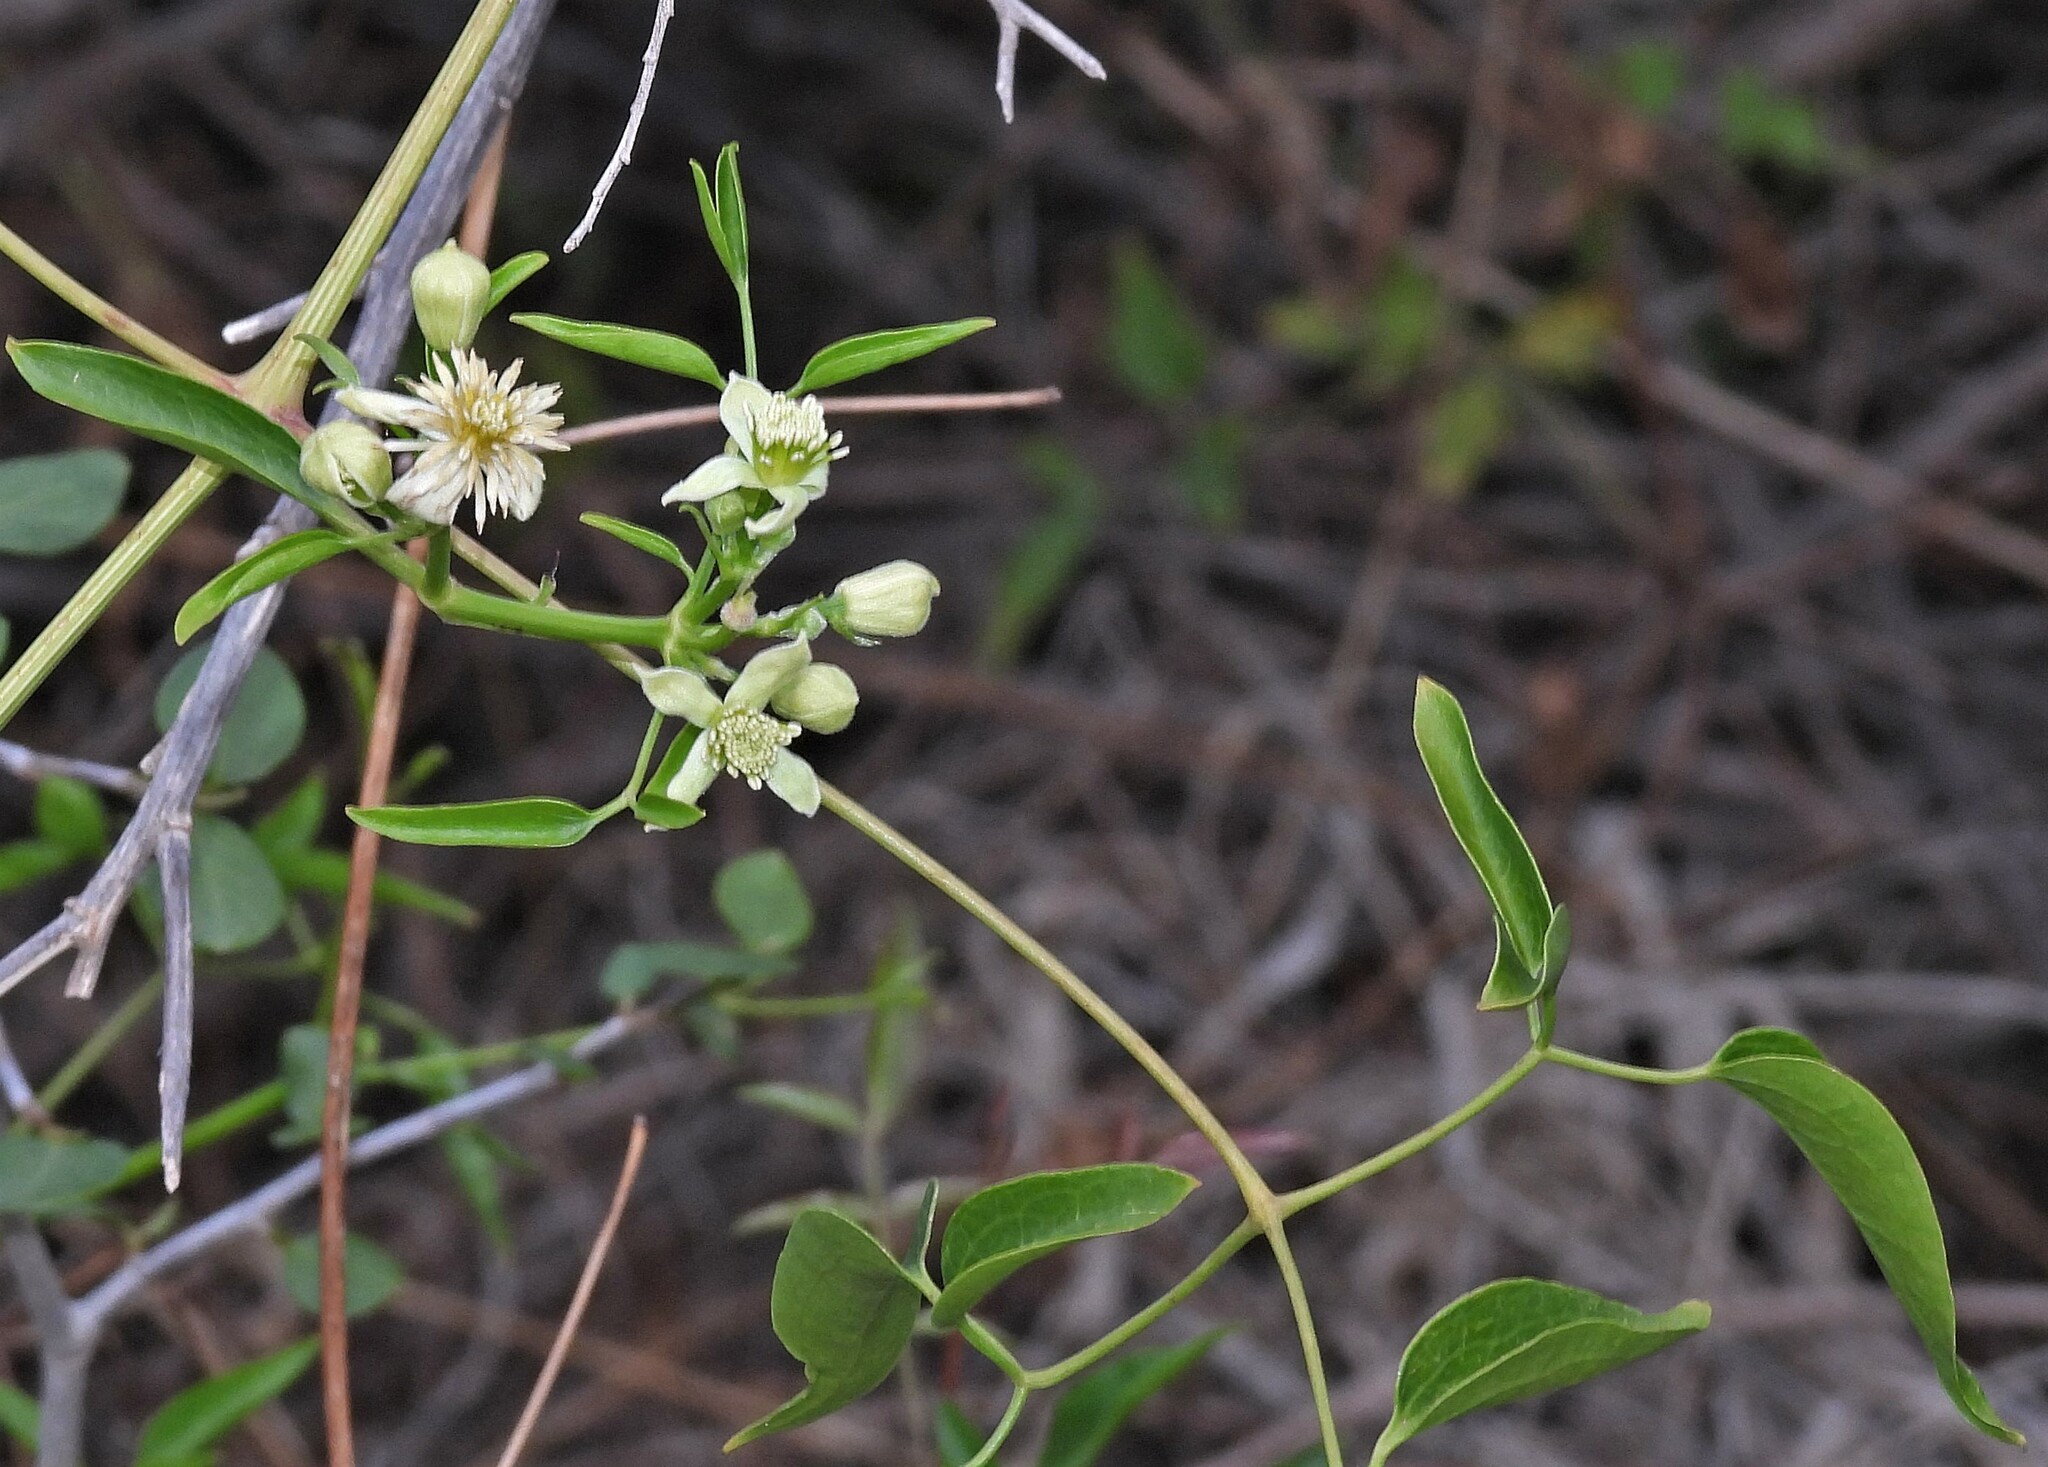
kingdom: Plantae
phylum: Tracheophyta
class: Magnoliopsida
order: Ranunculales
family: Ranunculaceae
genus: Clematis
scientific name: Clematis montevidensis
